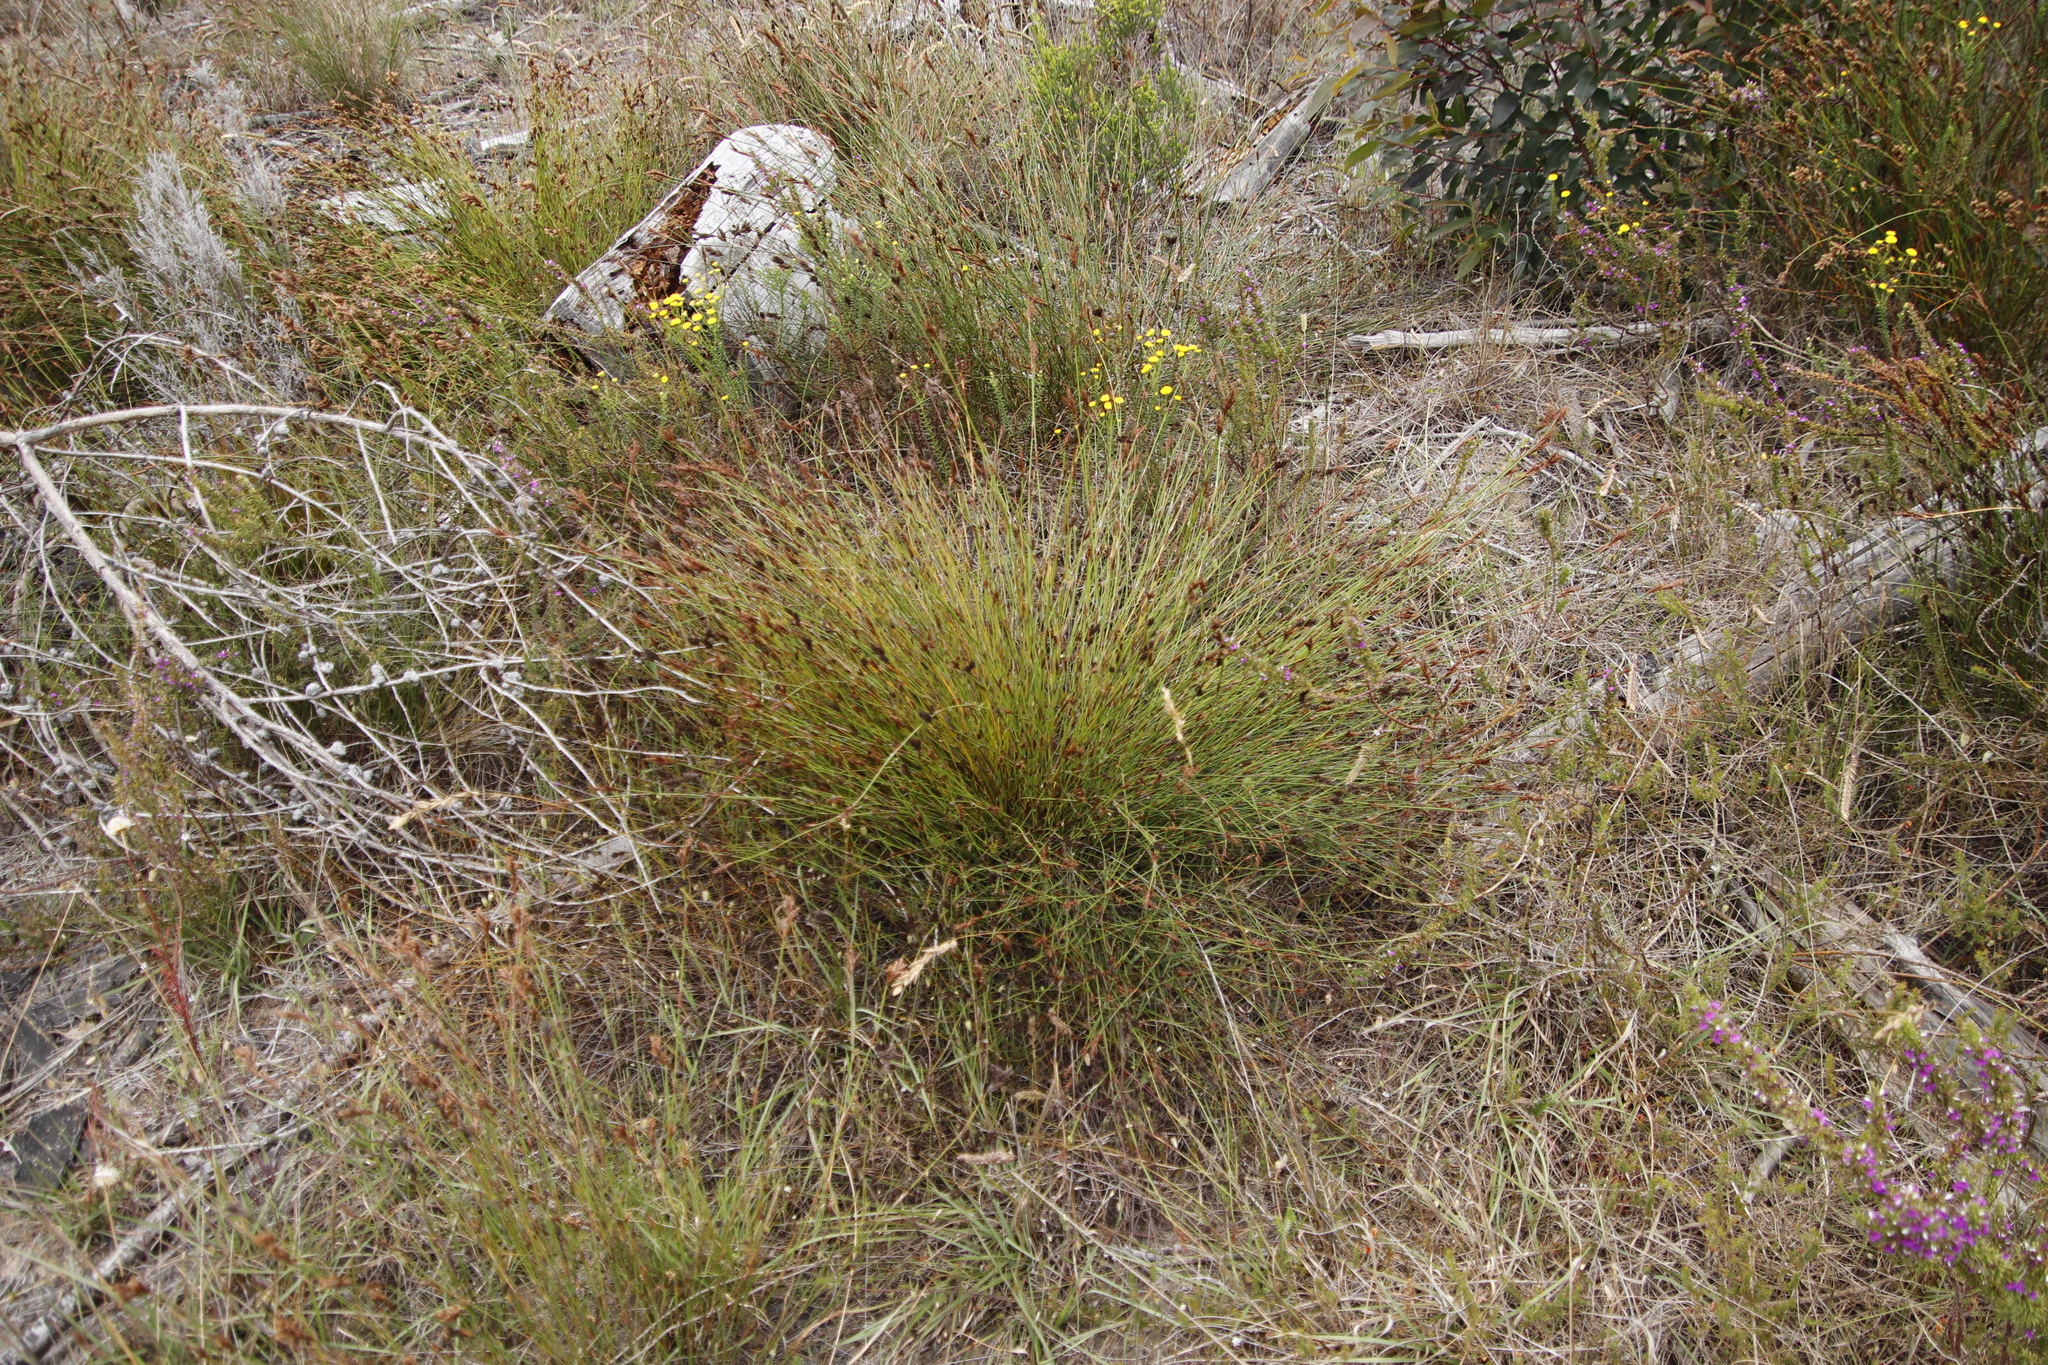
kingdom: Plantae
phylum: Tracheophyta
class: Liliopsida
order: Poales
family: Restionaceae
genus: Restio
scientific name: Restio capensis
